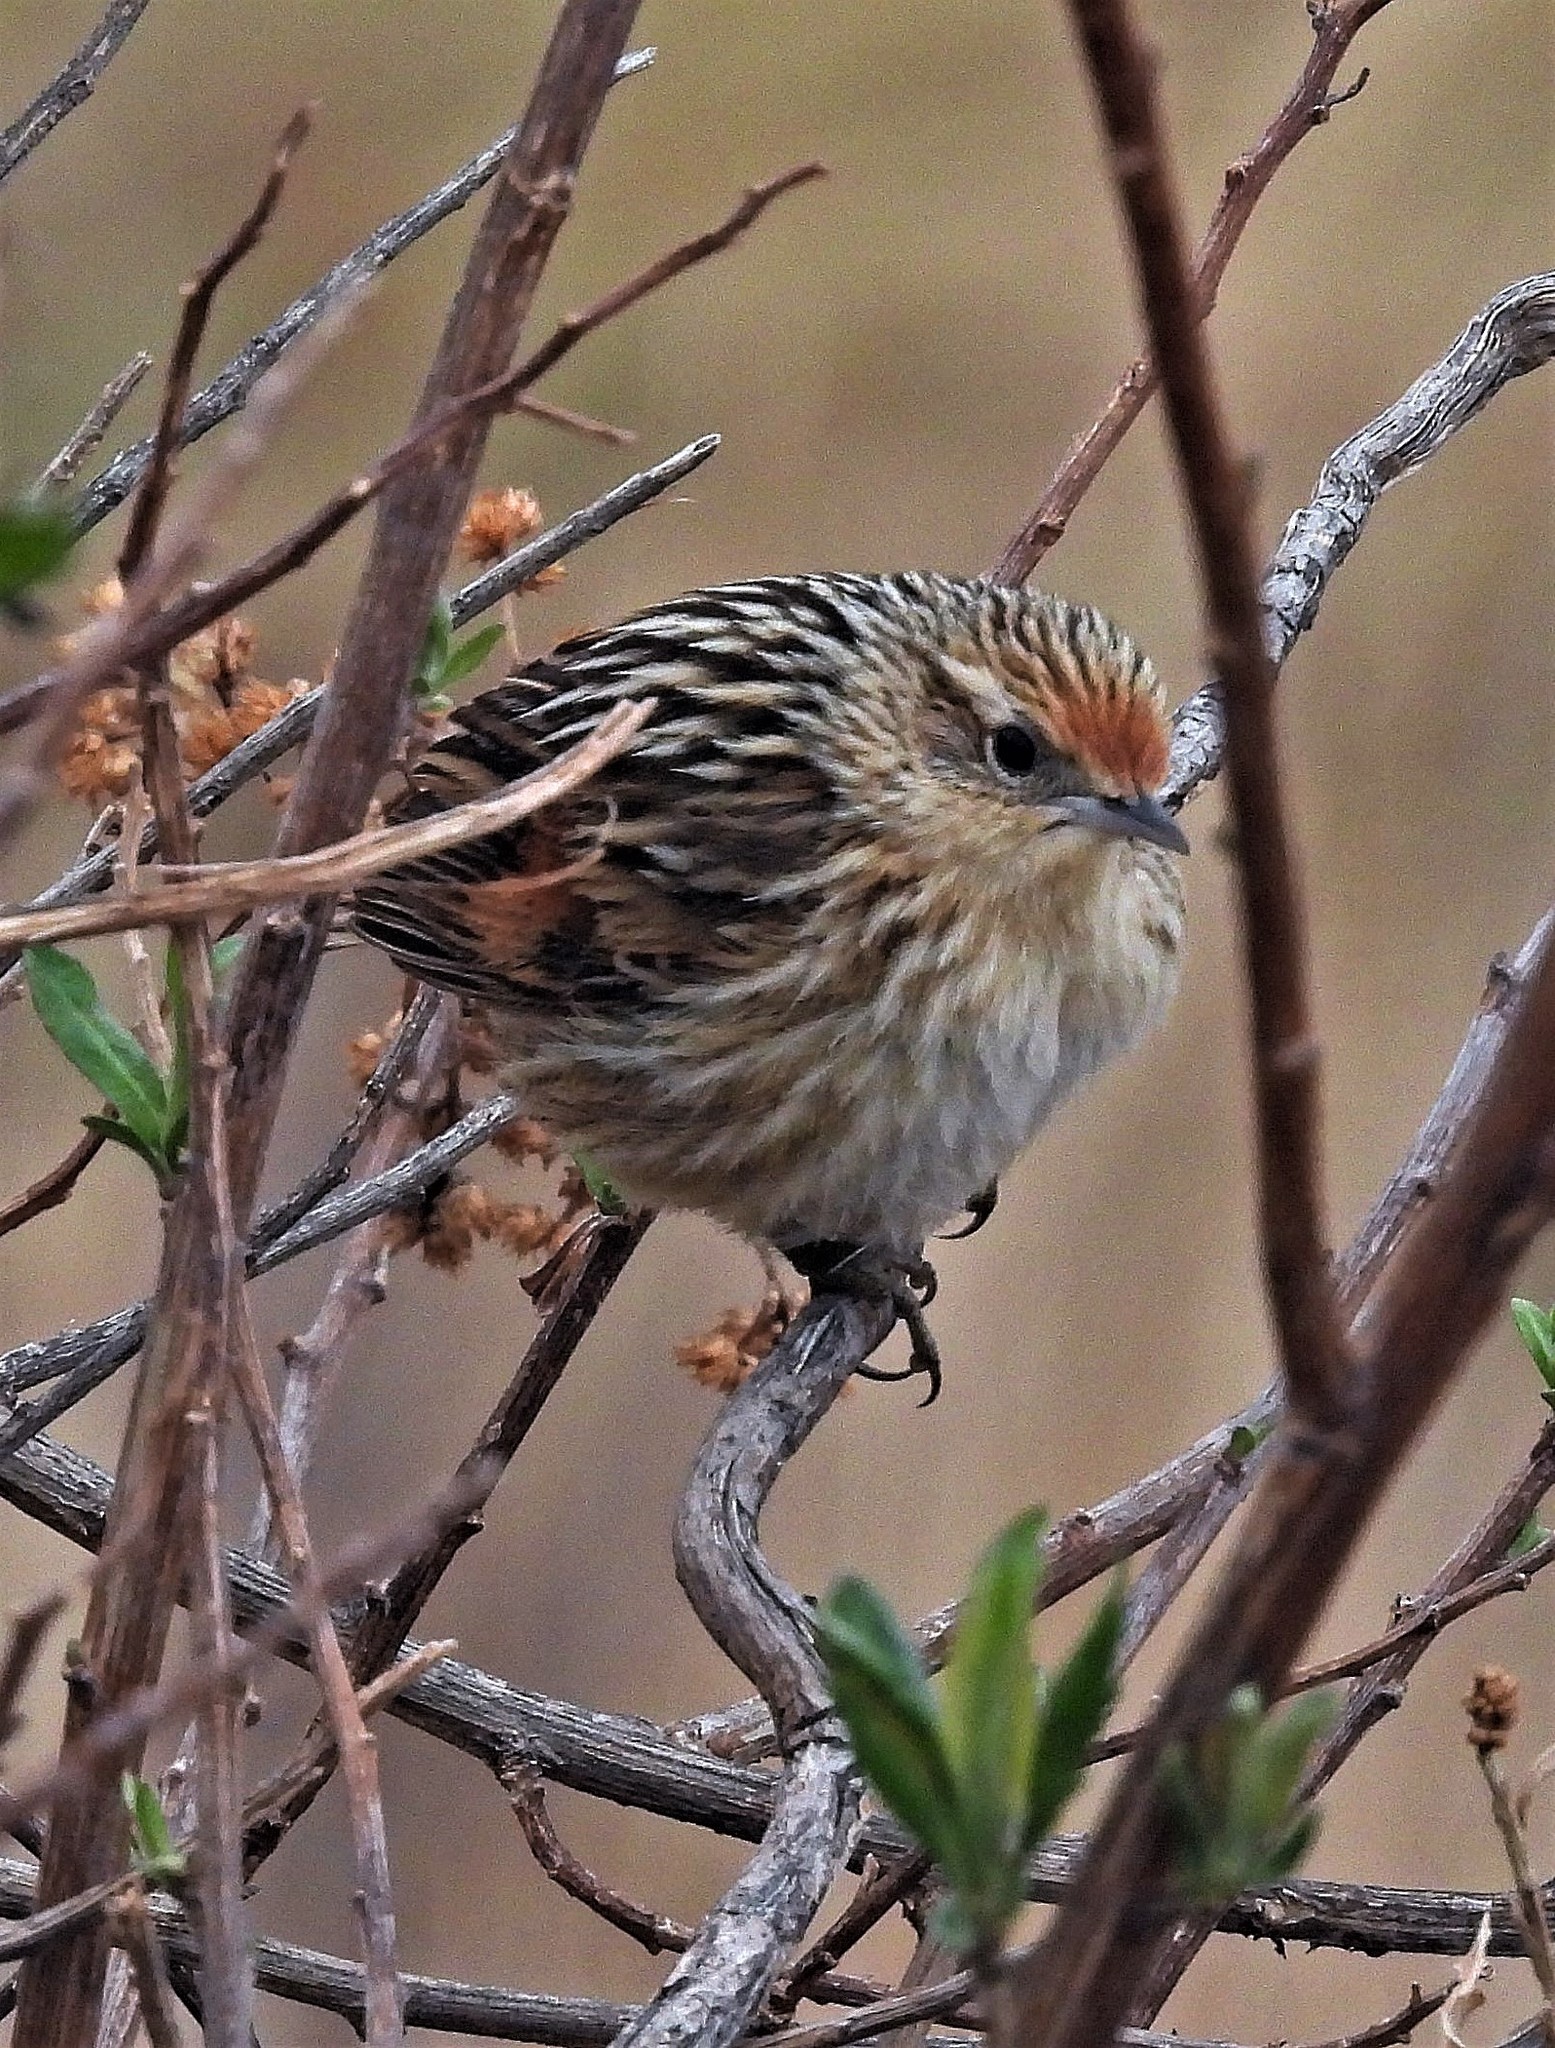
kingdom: Animalia
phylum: Chordata
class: Aves
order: Passeriformes
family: Furnariidae
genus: Asthenes
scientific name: Asthenes maculicauda
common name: Scribble-tailed canastero
